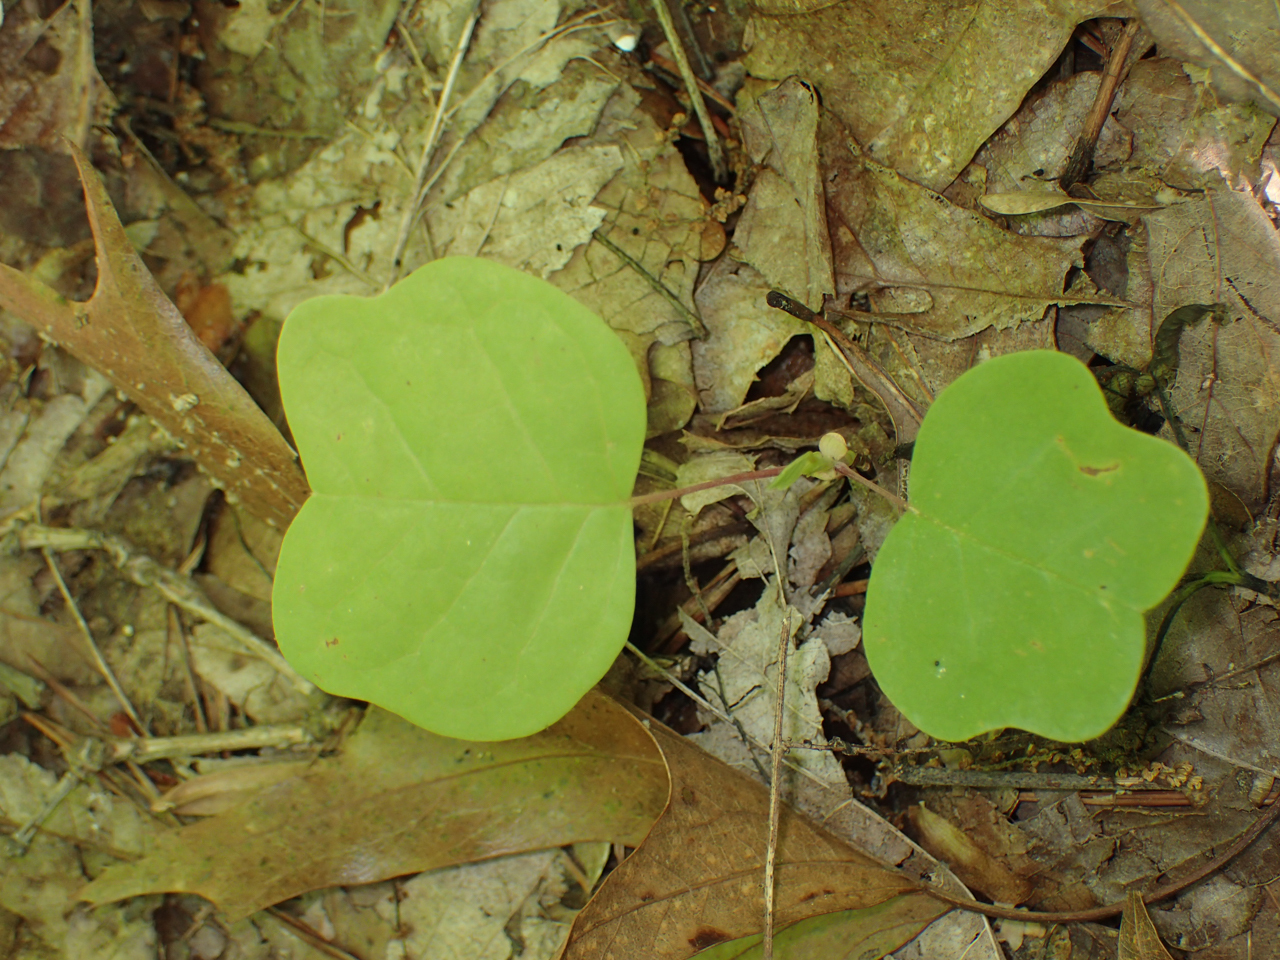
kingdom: Plantae
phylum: Tracheophyta
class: Magnoliopsida
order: Magnoliales
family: Magnoliaceae
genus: Liriodendron
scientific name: Liriodendron tulipifera
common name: Tulip tree
